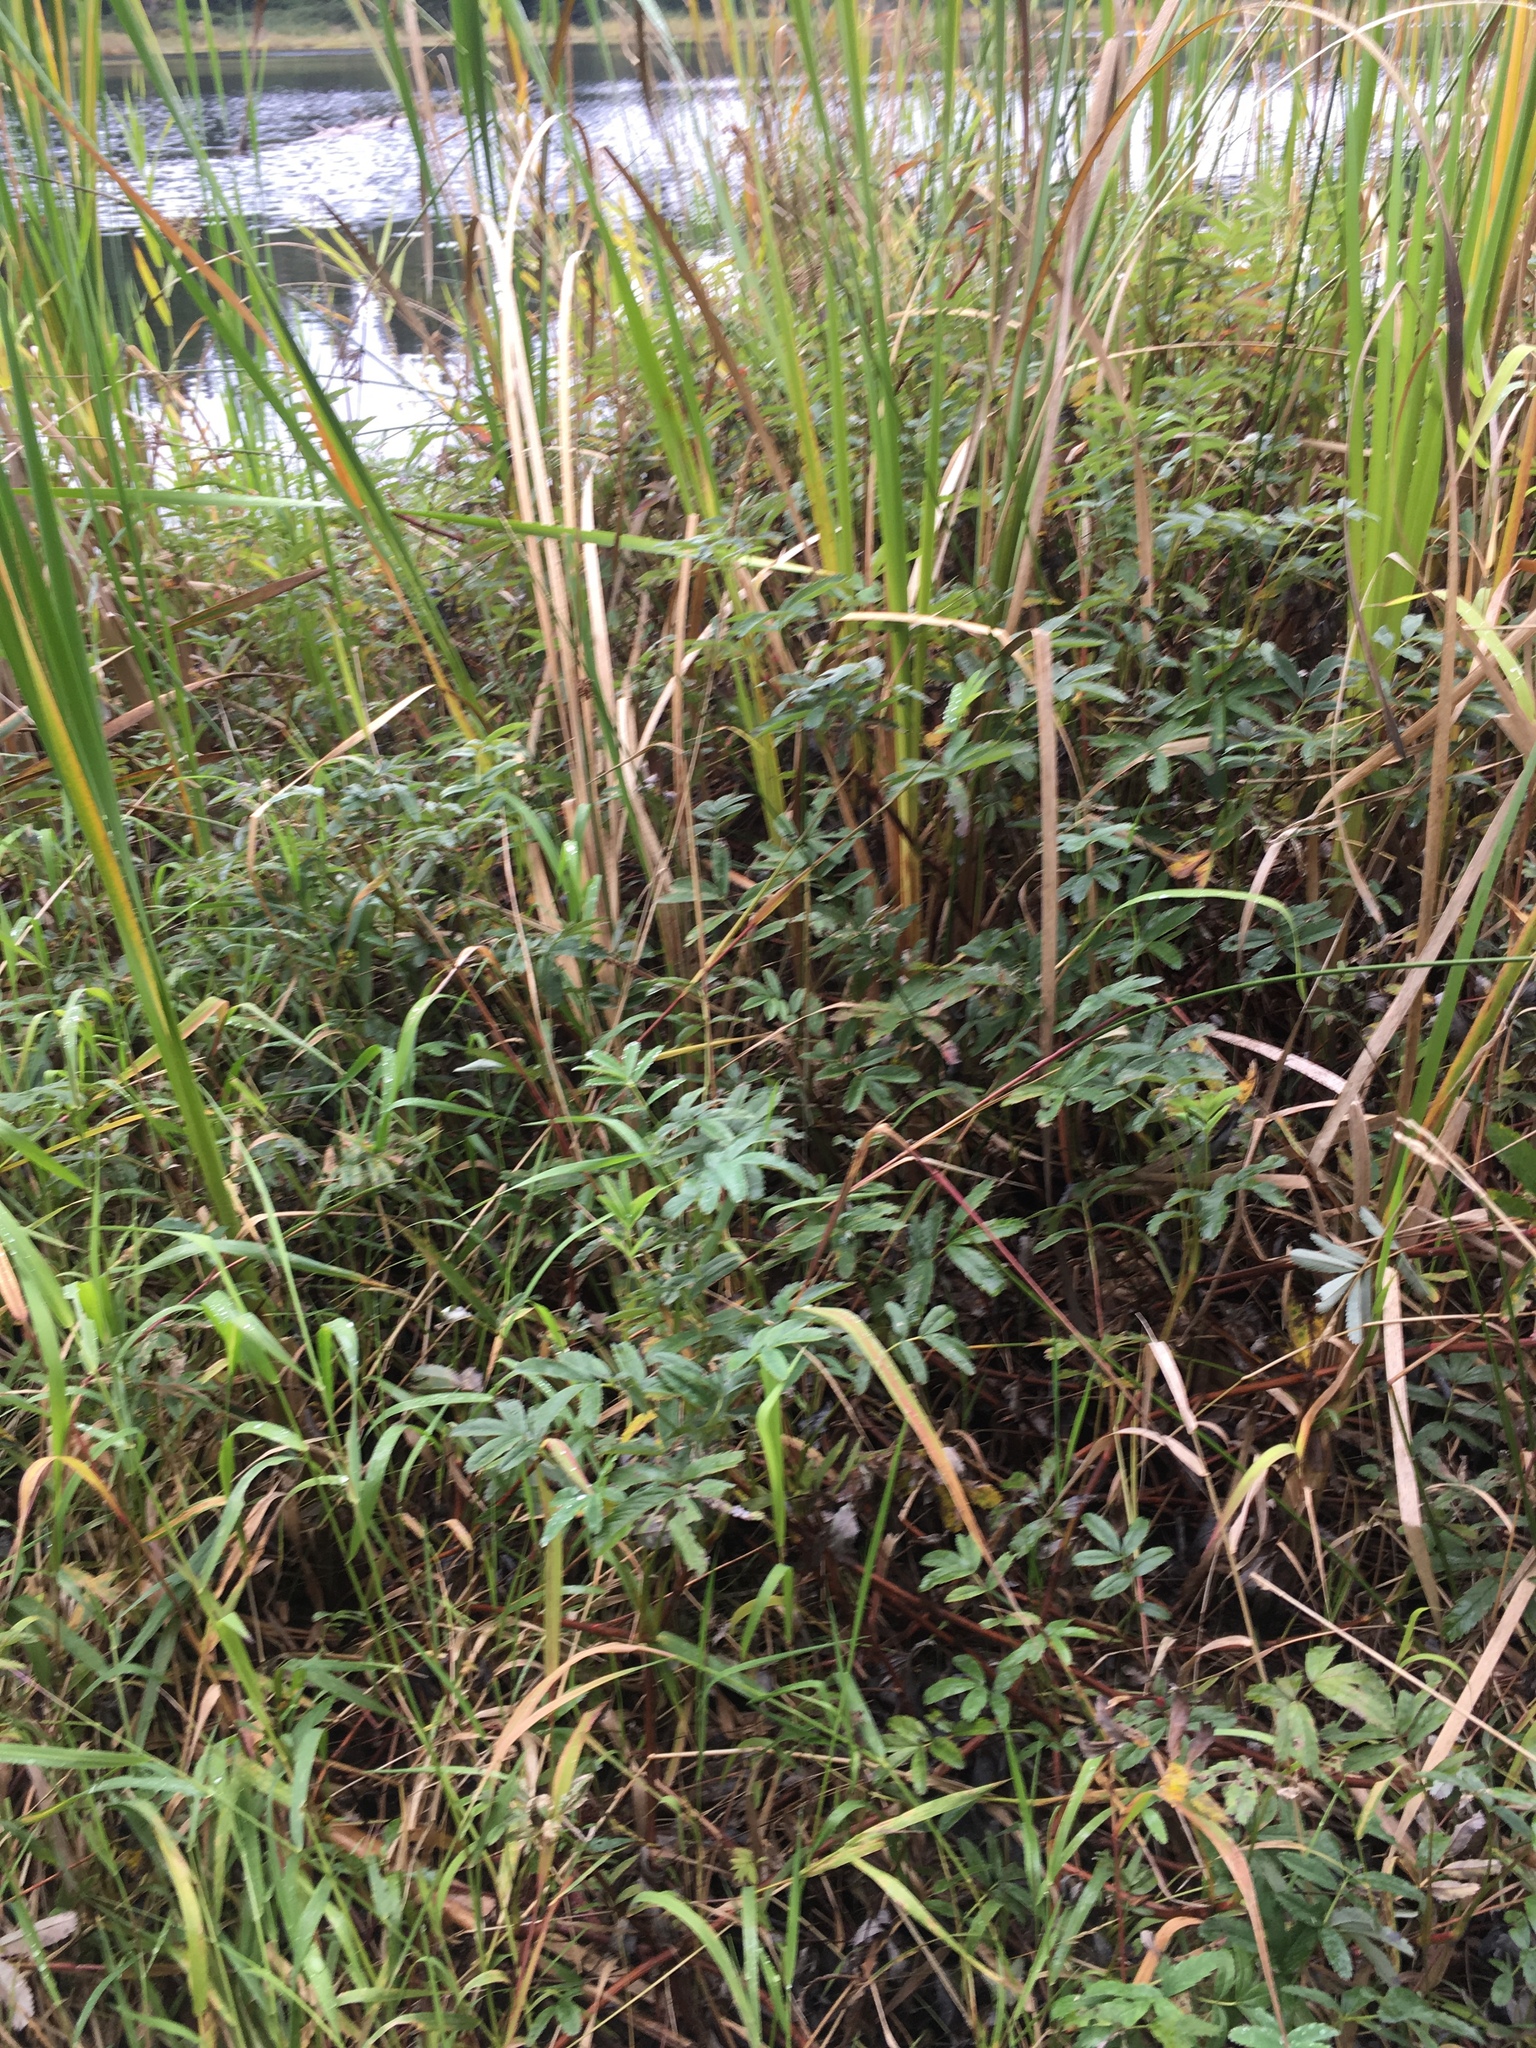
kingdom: Plantae
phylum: Tracheophyta
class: Magnoliopsida
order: Rosales
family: Rosaceae
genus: Comarum
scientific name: Comarum palustre
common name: Marsh cinquefoil
